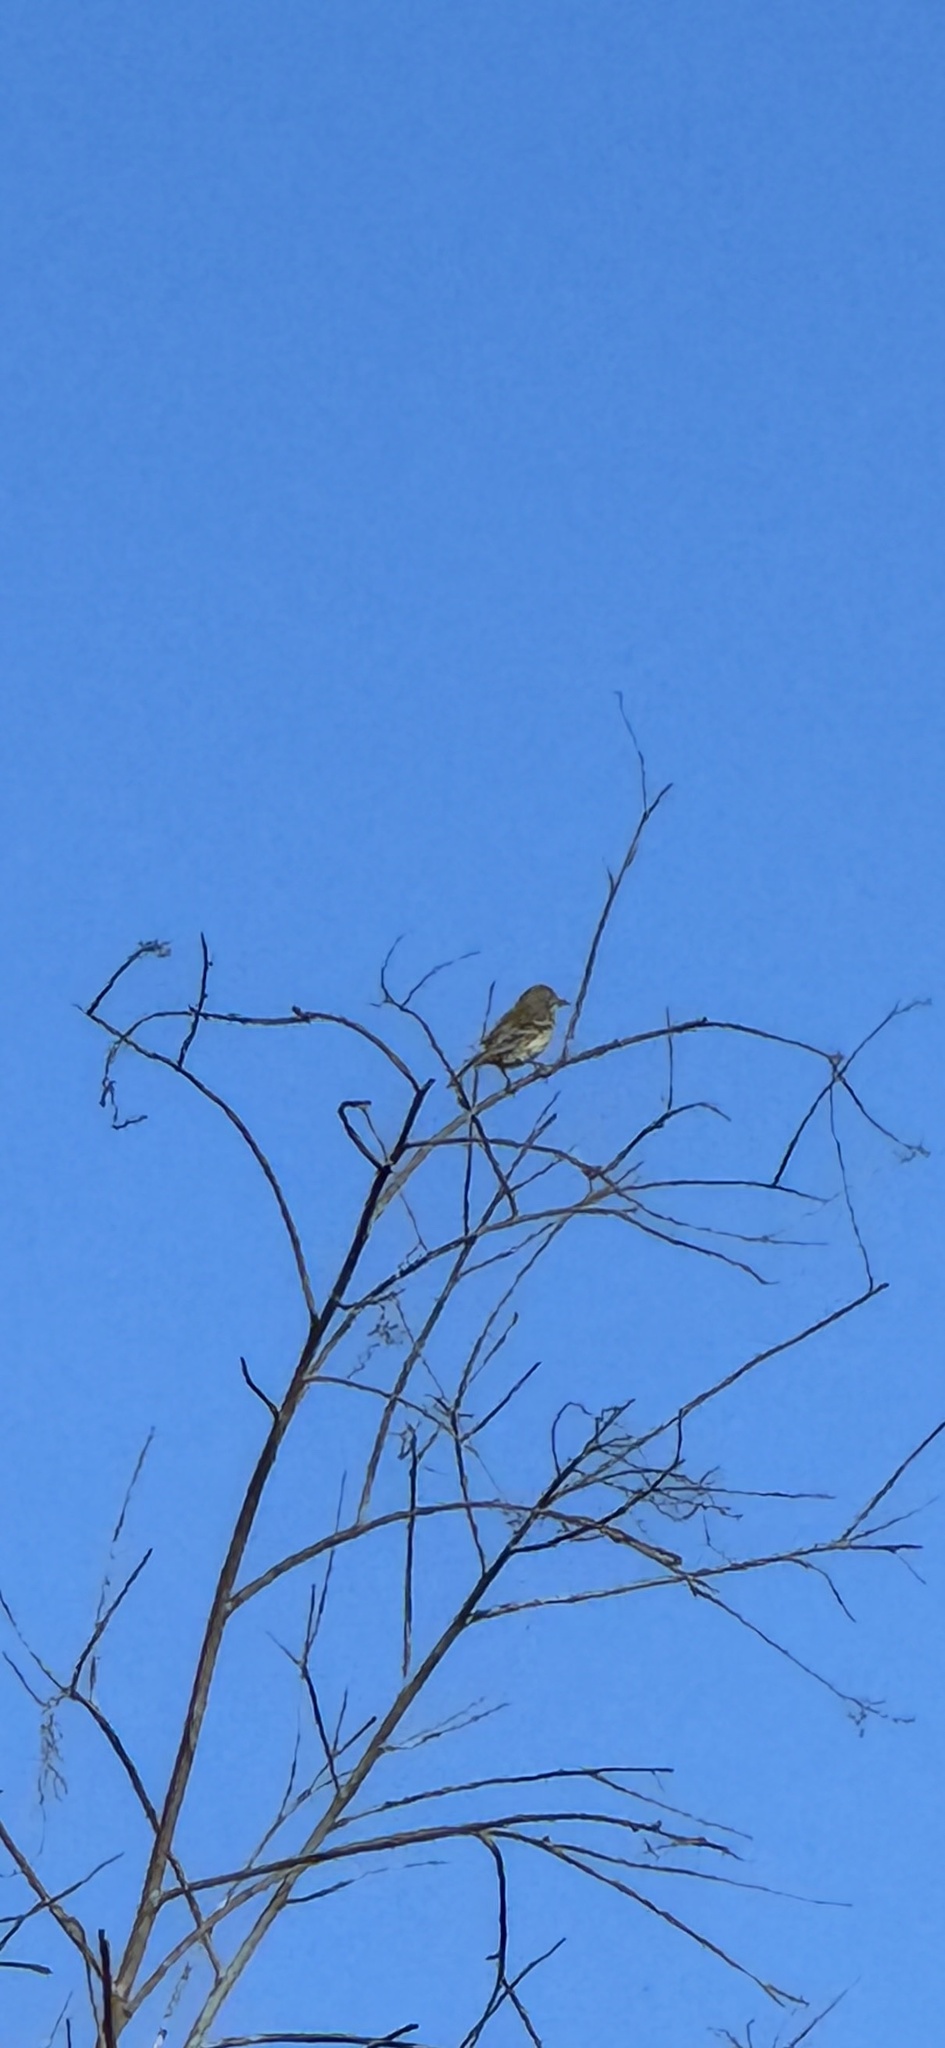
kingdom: Animalia
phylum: Chordata
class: Aves
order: Passeriformes
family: Parulidae
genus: Setophaga
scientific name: Setophaga coronata
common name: Myrtle warbler
